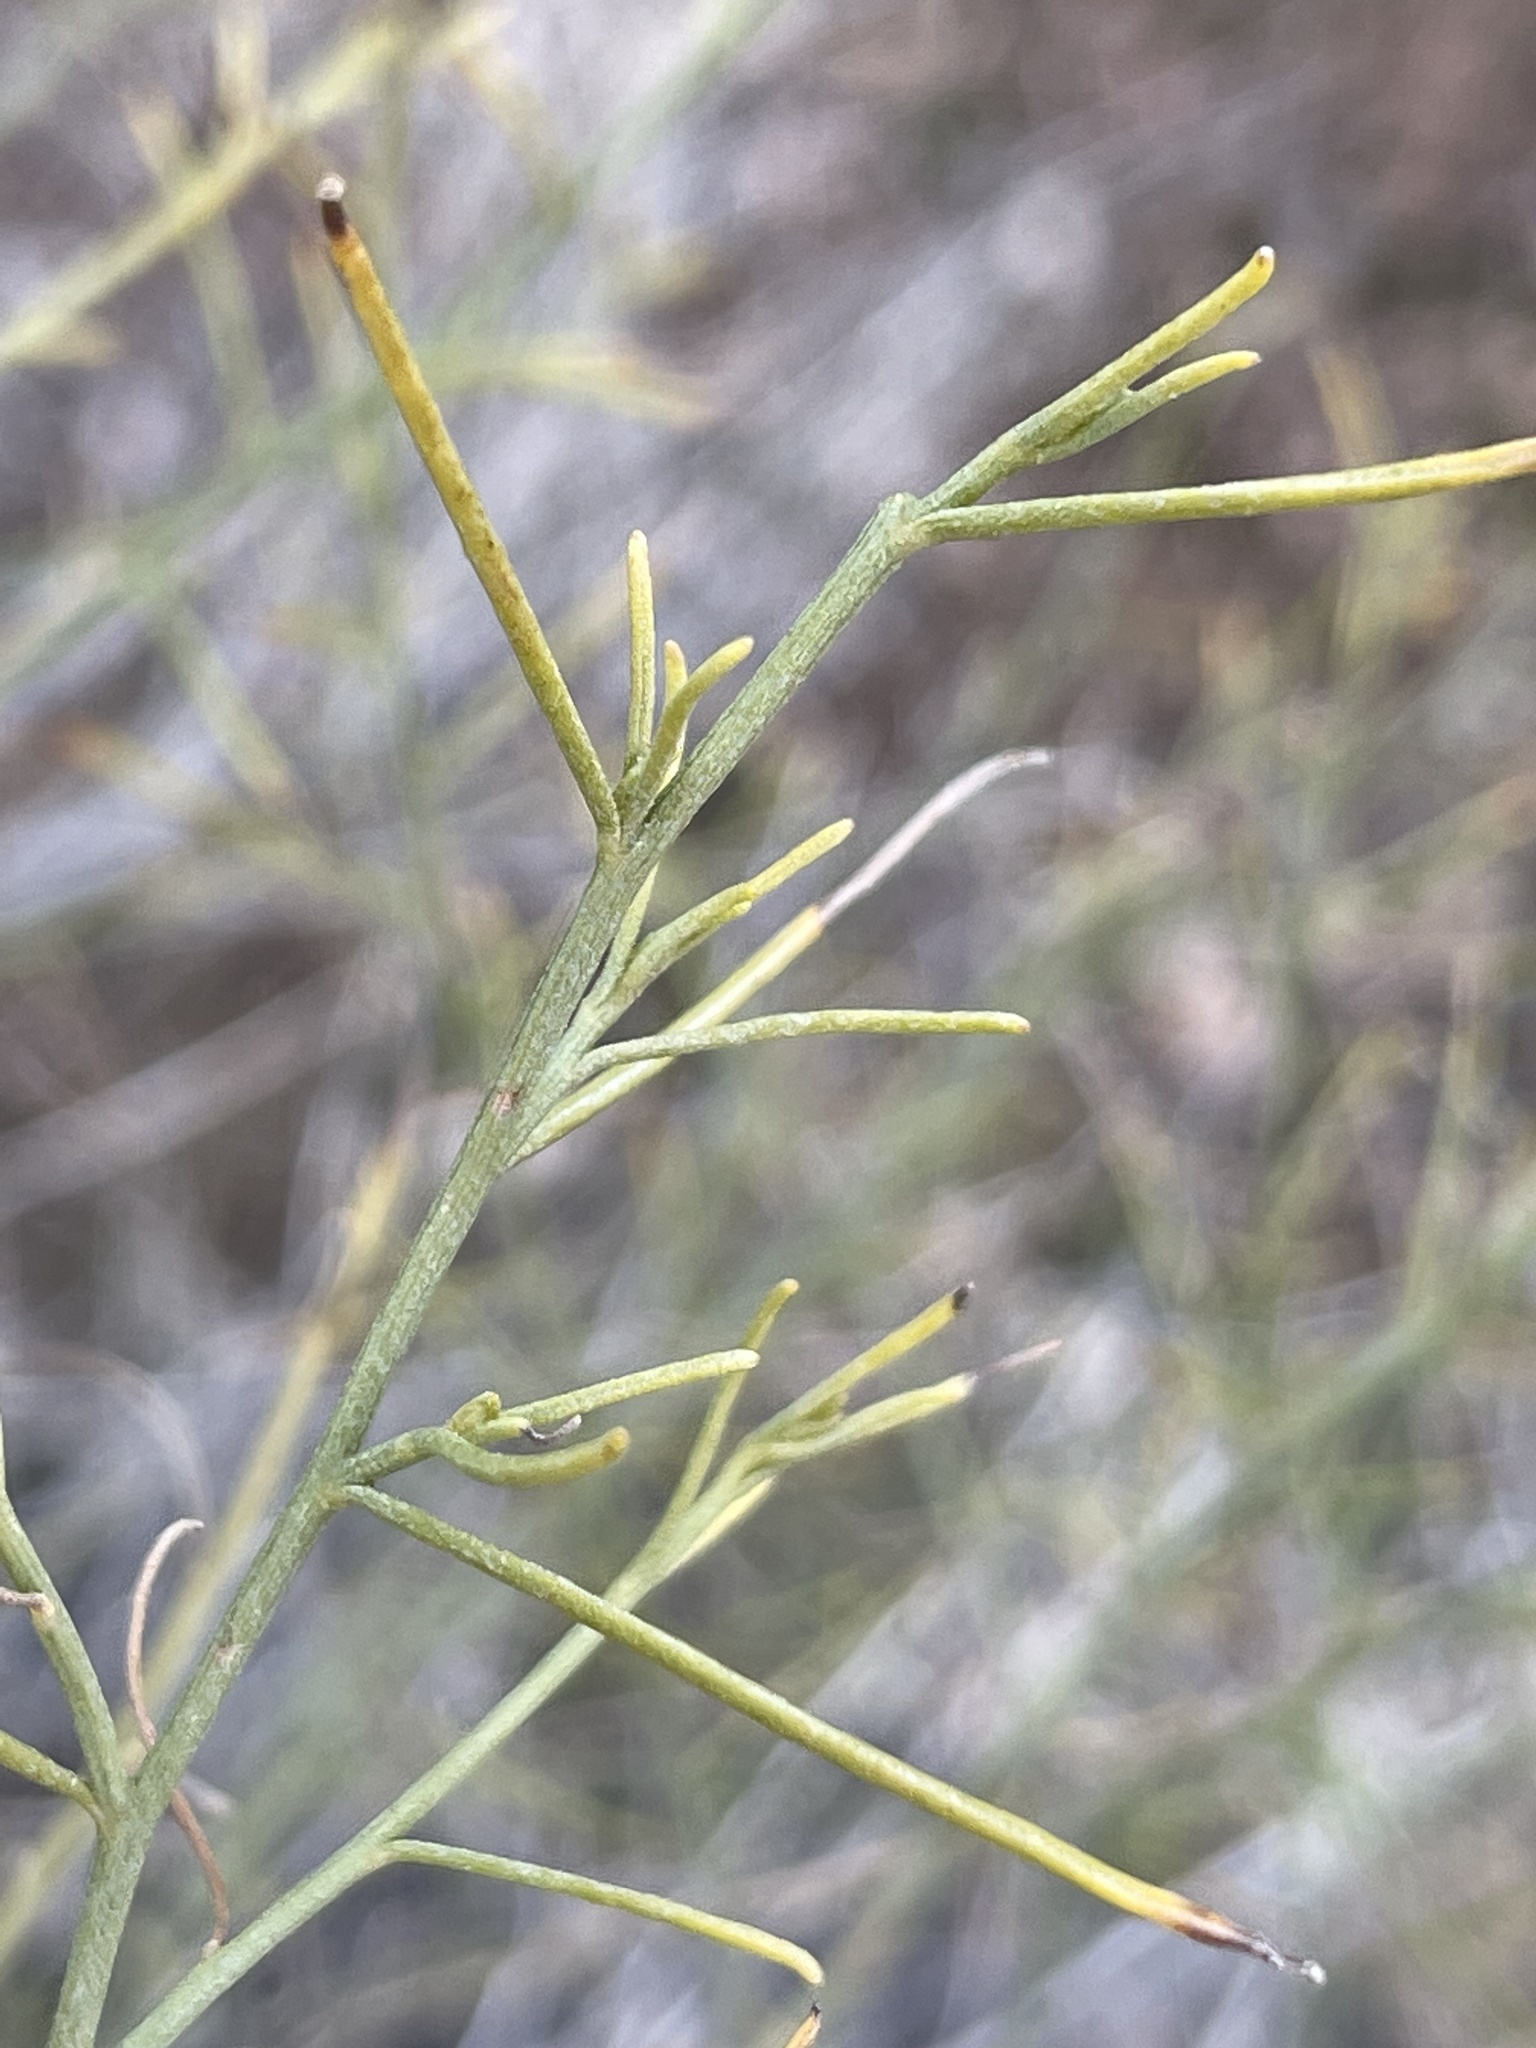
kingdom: Plantae
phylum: Tracheophyta
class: Magnoliopsida
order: Asterales
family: Asteraceae
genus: Ambrosia
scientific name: Ambrosia salsola
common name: Burrobrush
